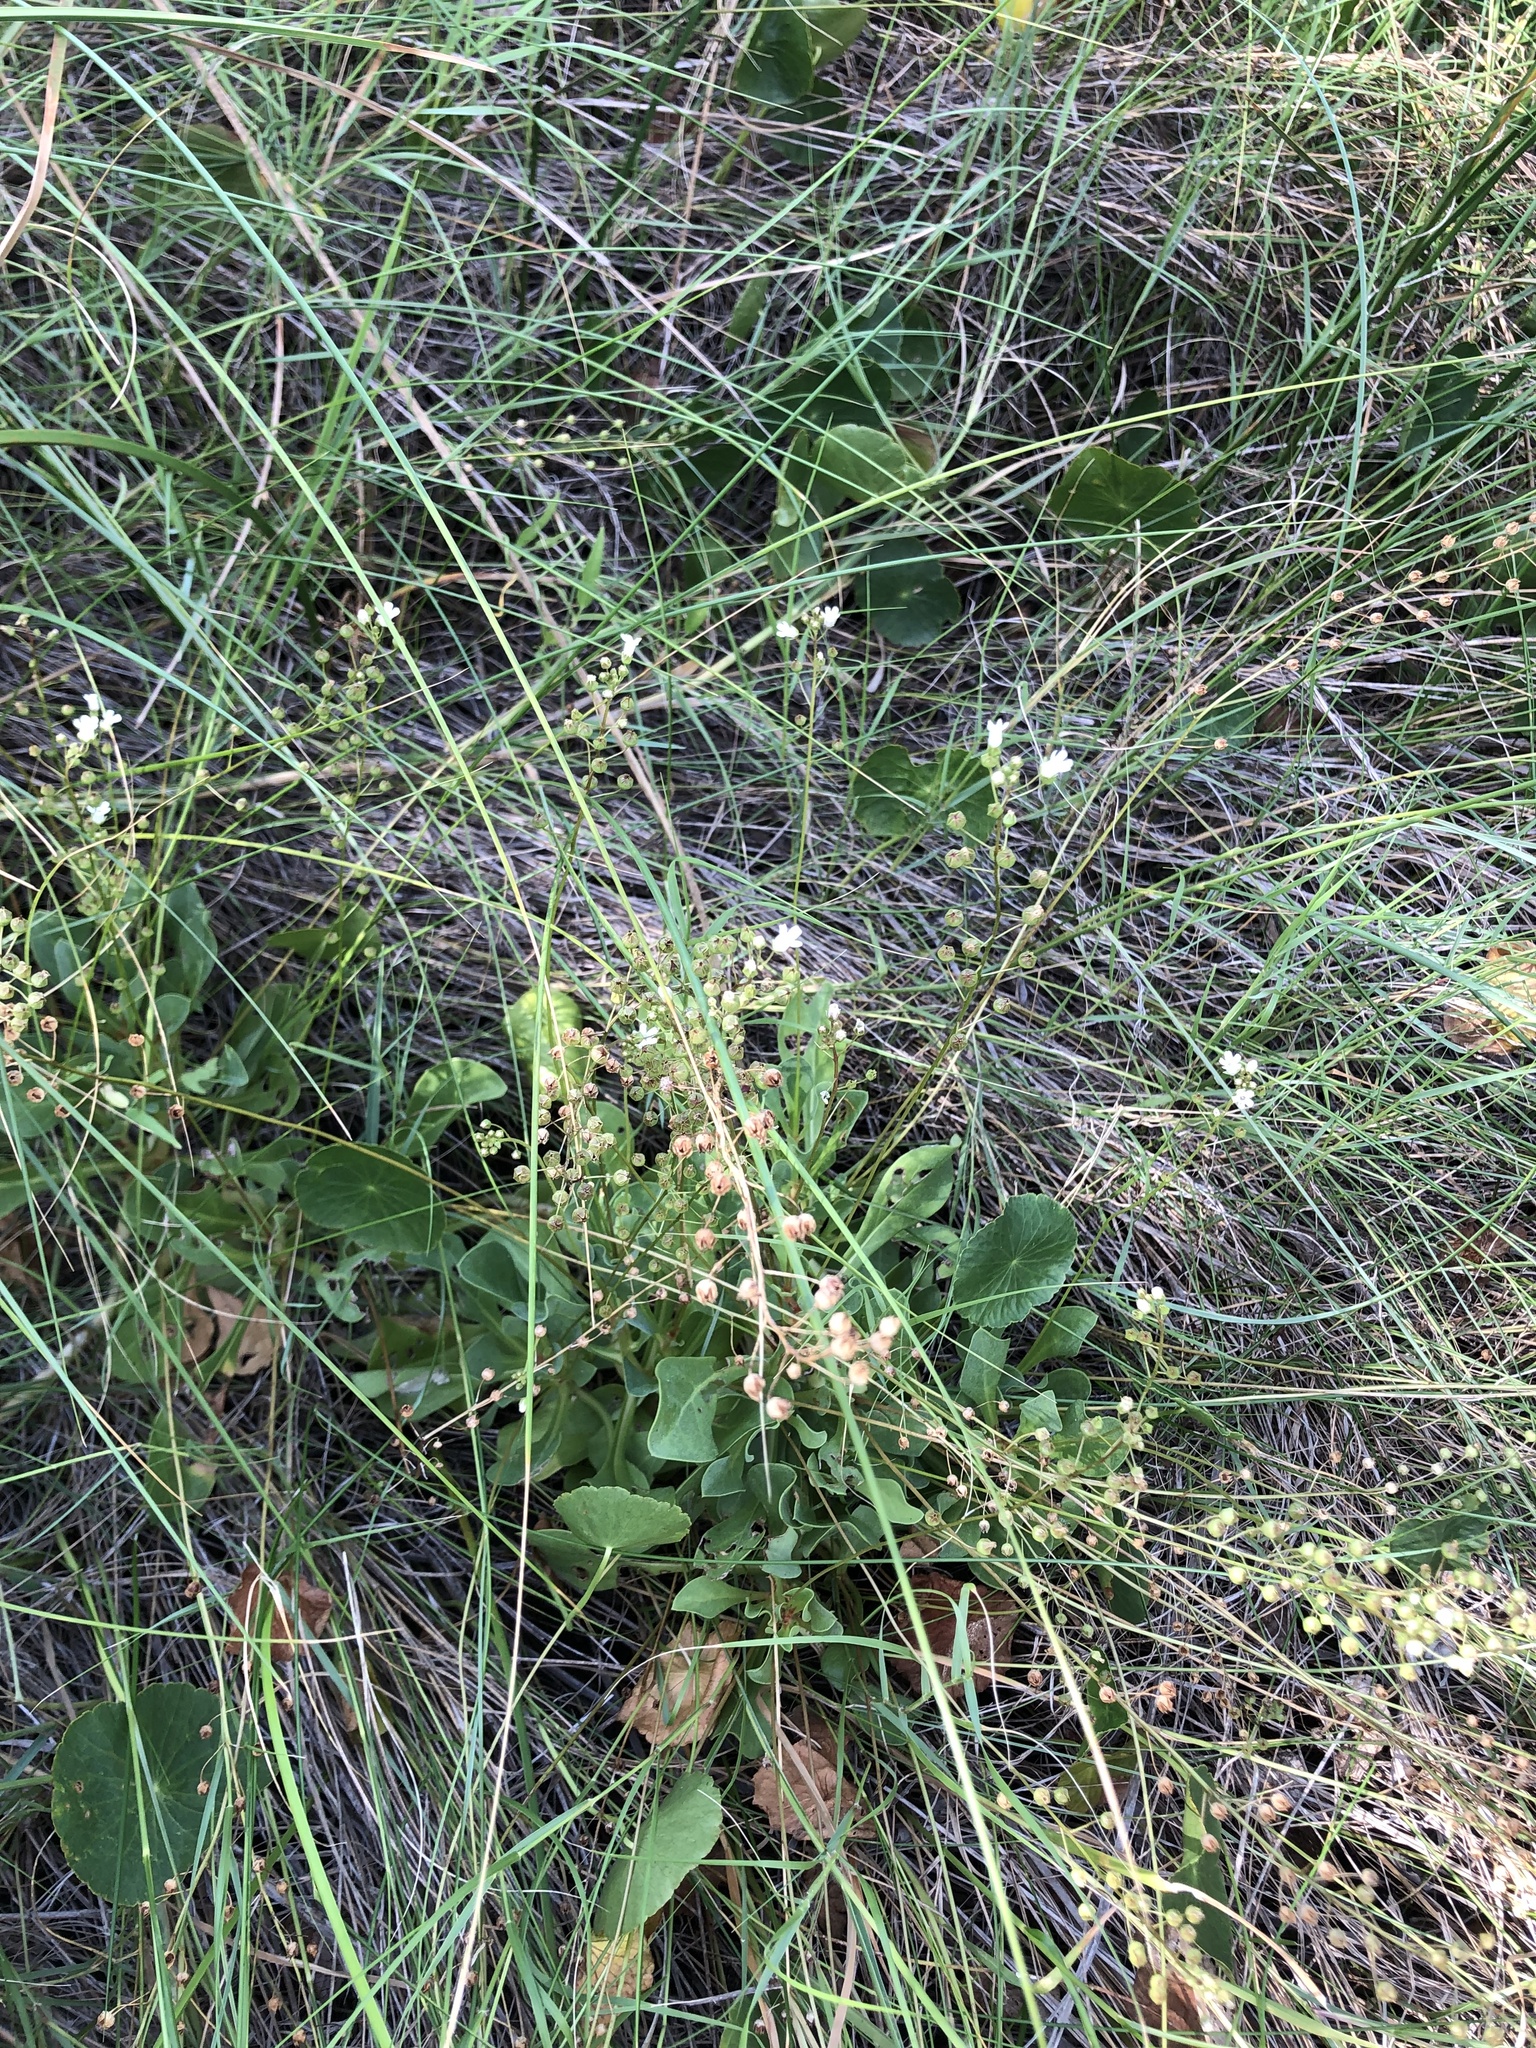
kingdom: Plantae
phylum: Tracheophyta
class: Magnoliopsida
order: Ericales
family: Primulaceae
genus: Samolus
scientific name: Samolus ebracteatus
